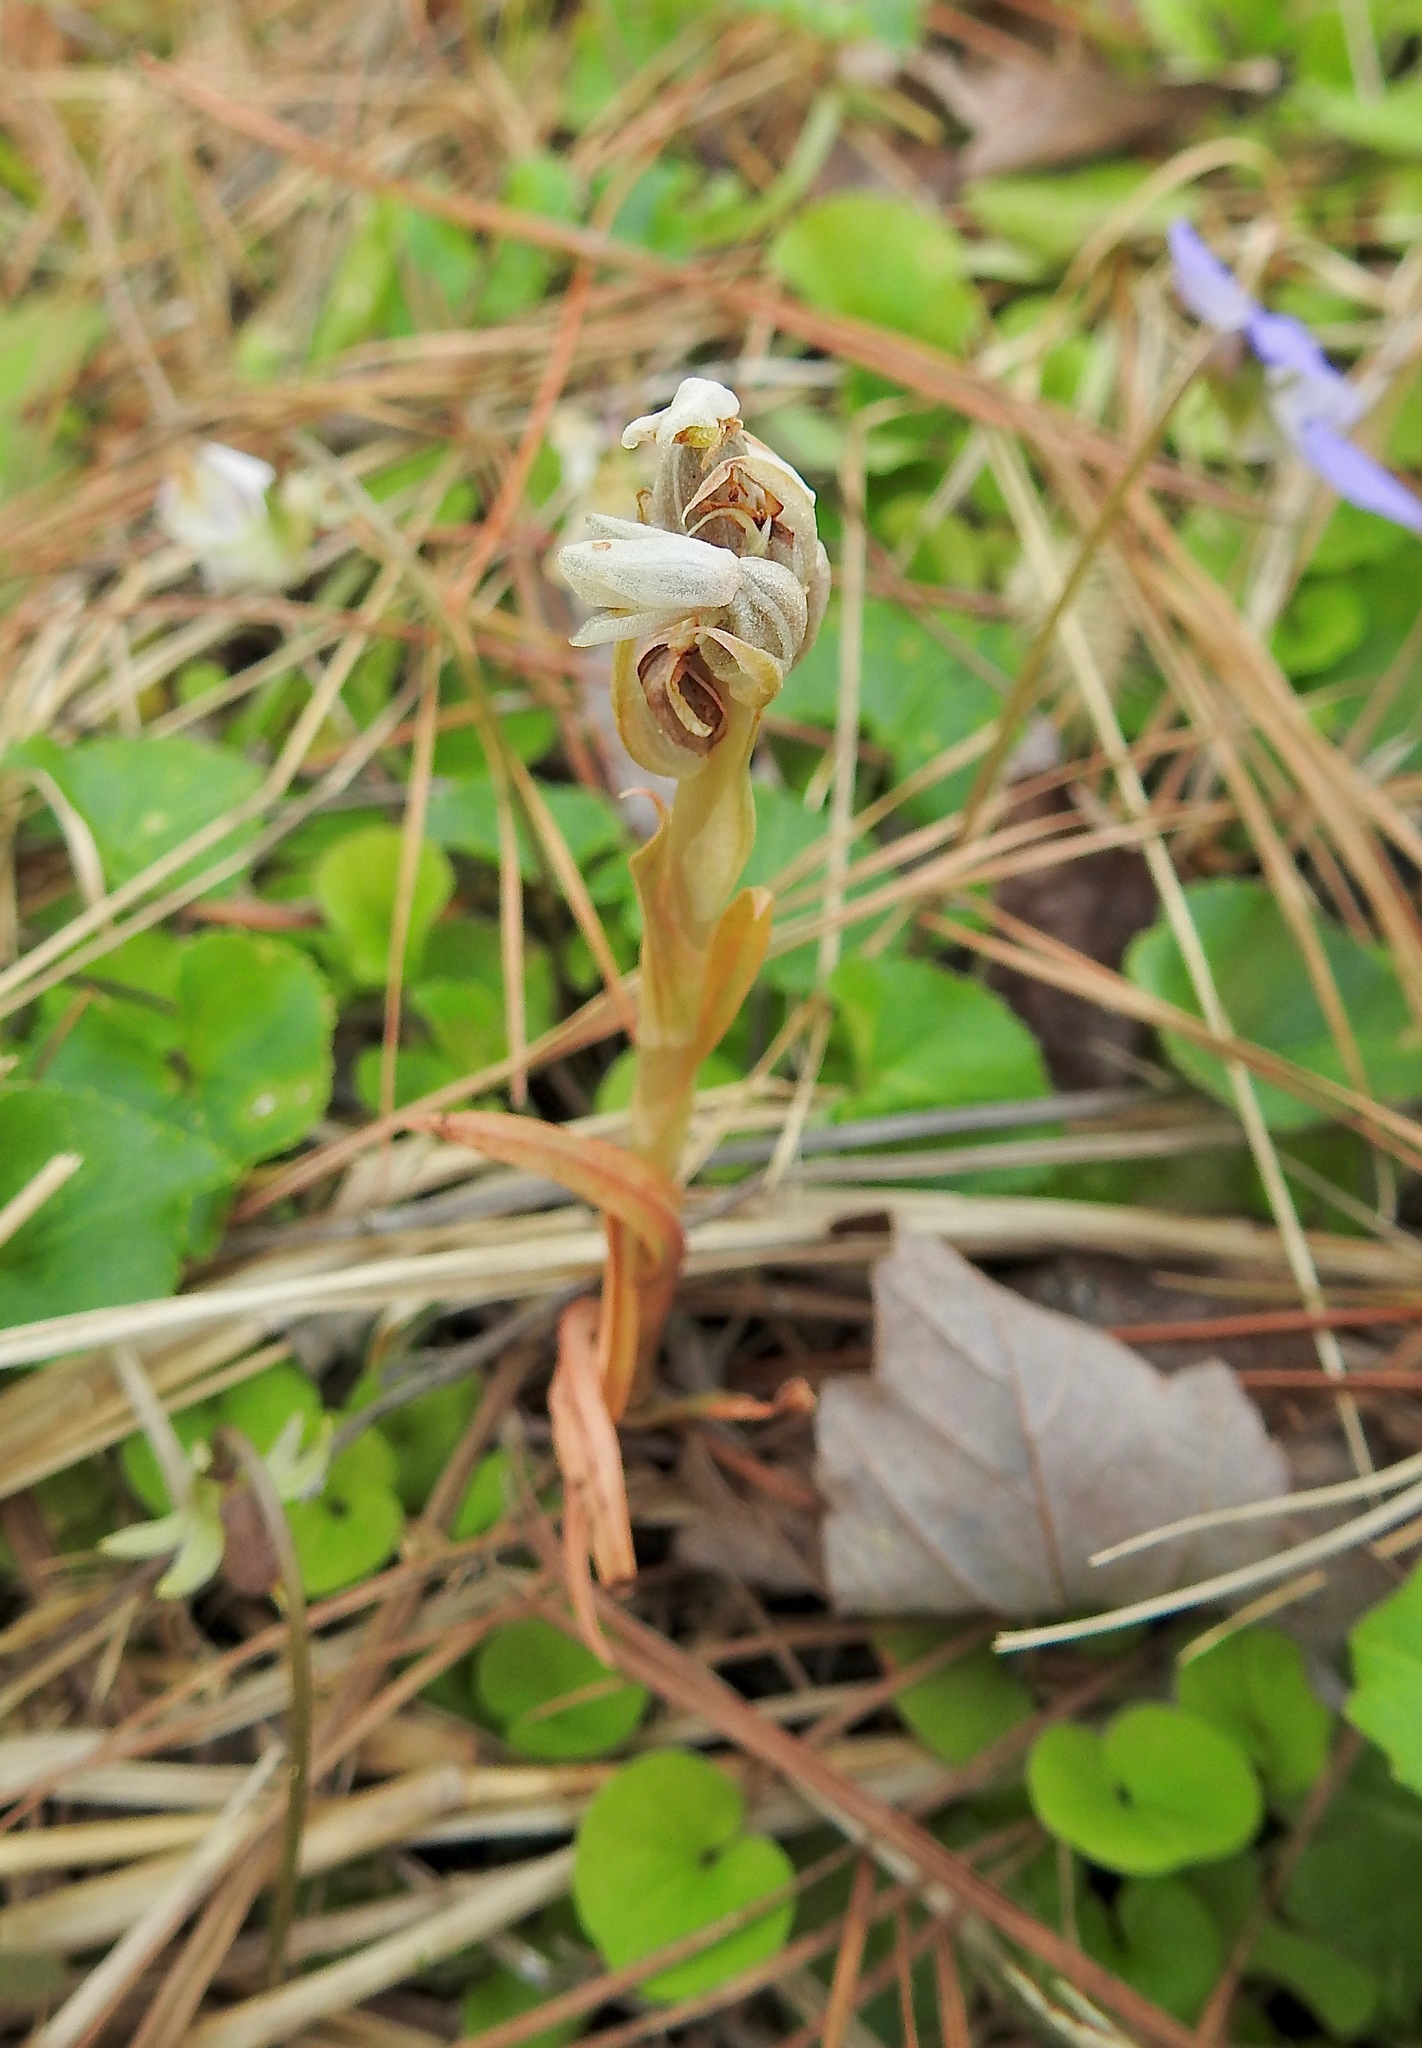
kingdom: Plantae
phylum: Tracheophyta
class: Liliopsida
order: Asparagales
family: Orchidaceae
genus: Zeuxine
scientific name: Zeuxine strateumatica
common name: Soldier's orchid
